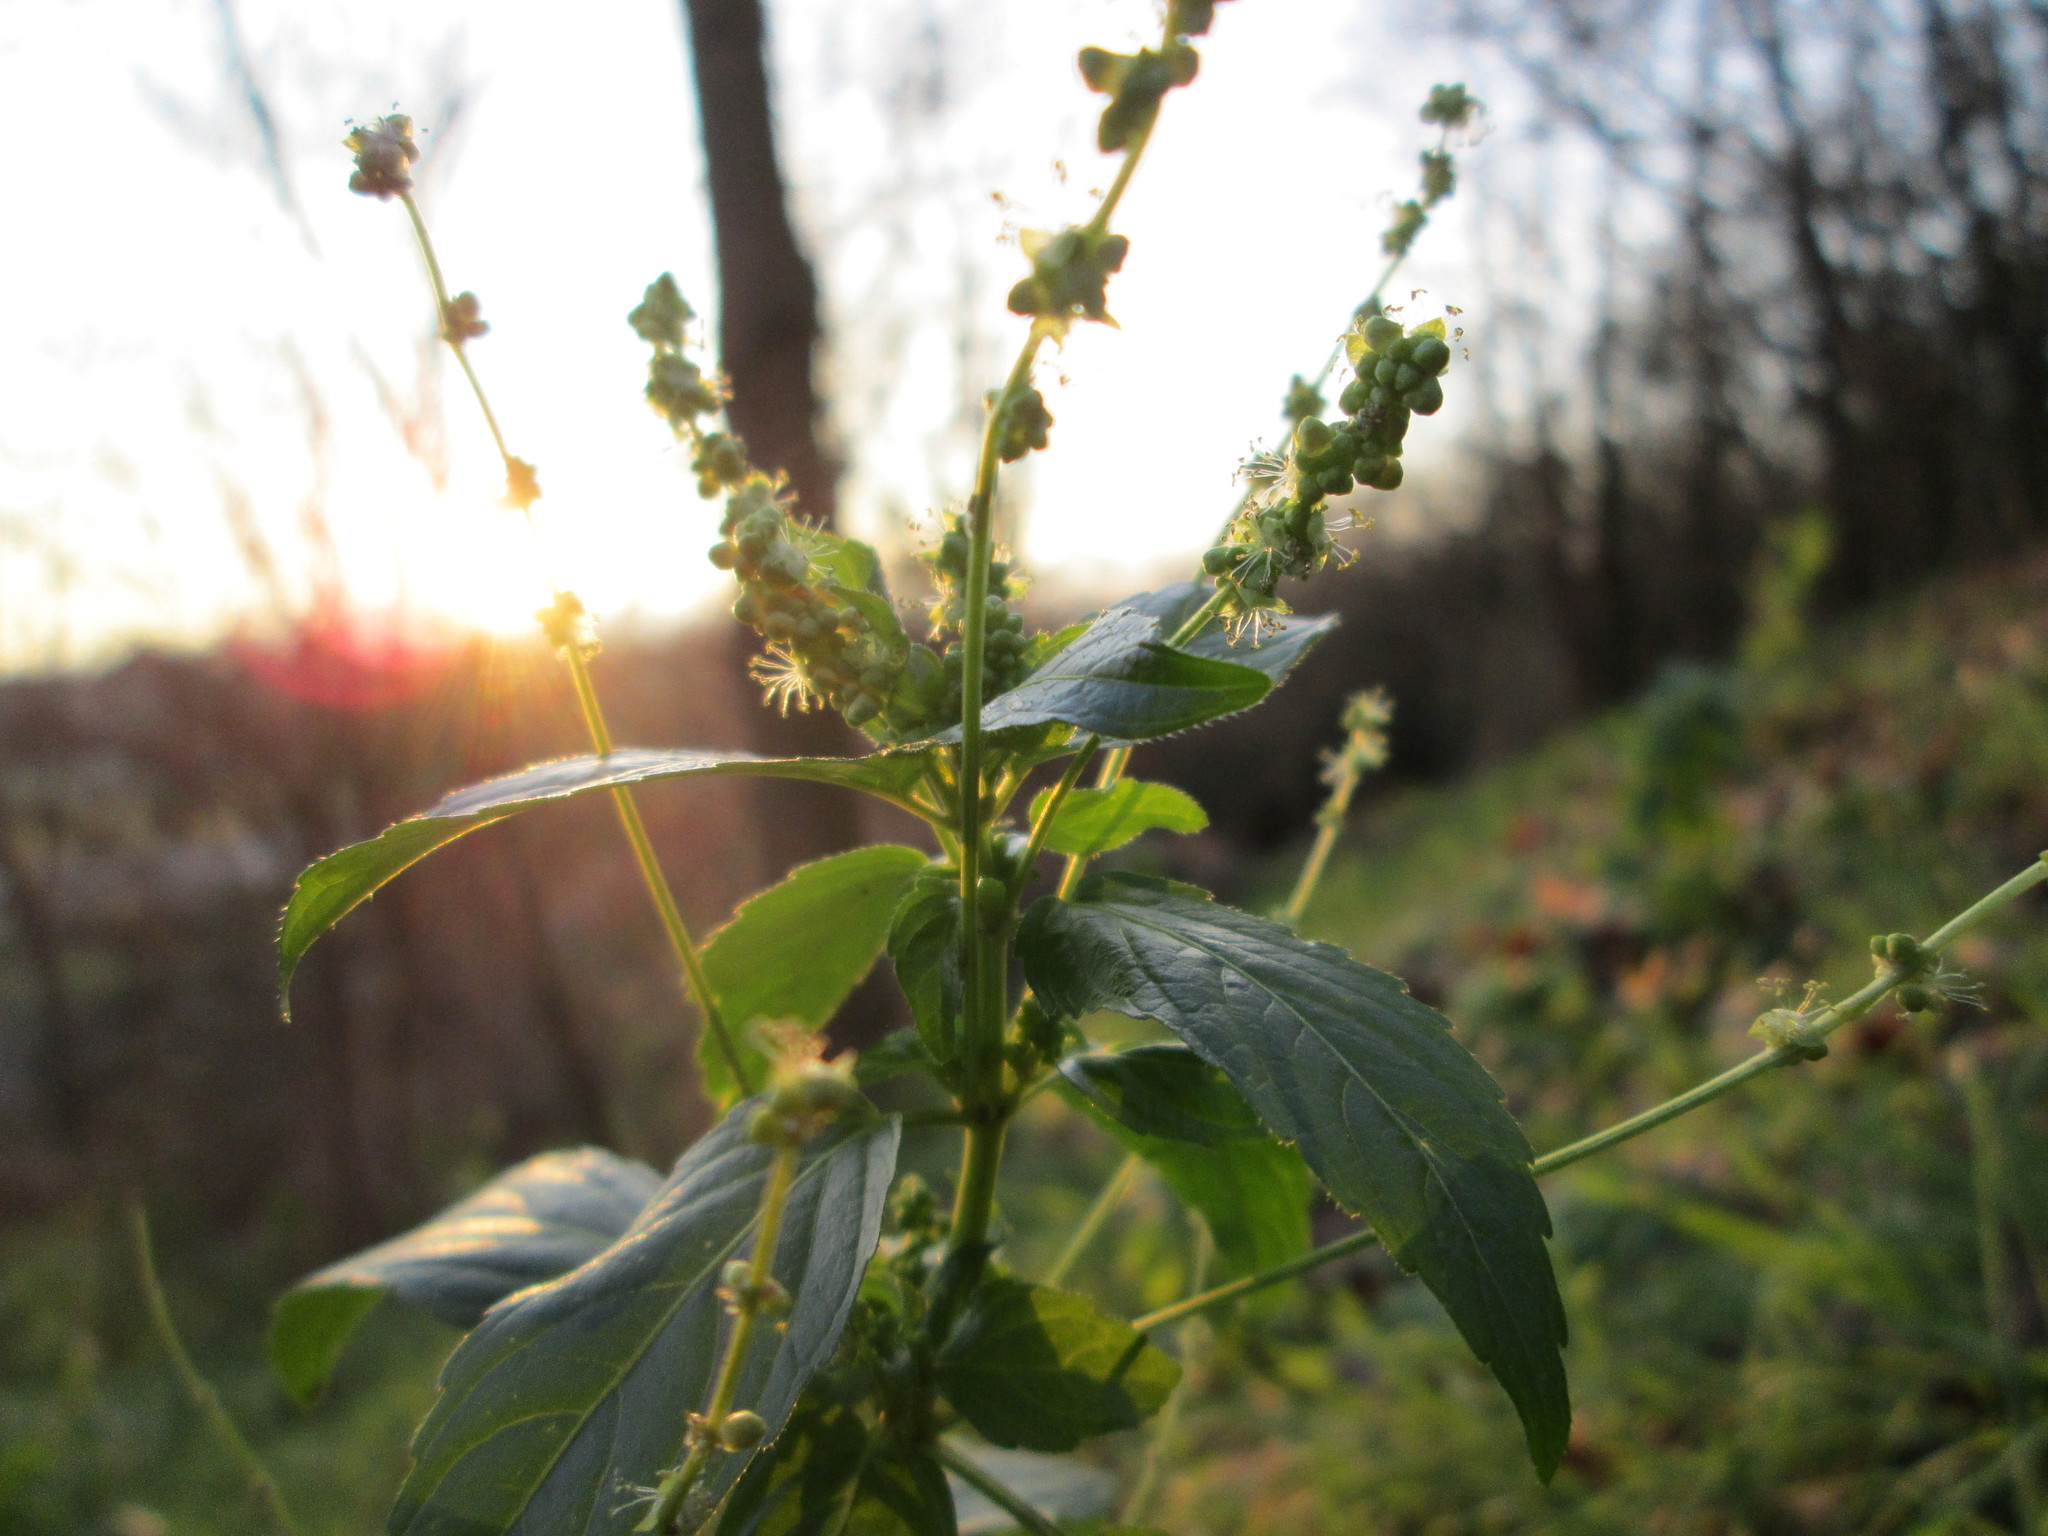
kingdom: Plantae
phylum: Tracheophyta
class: Magnoliopsida
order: Malpighiales
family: Euphorbiaceae
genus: Mercurialis
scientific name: Mercurialis annua
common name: Annual mercury
